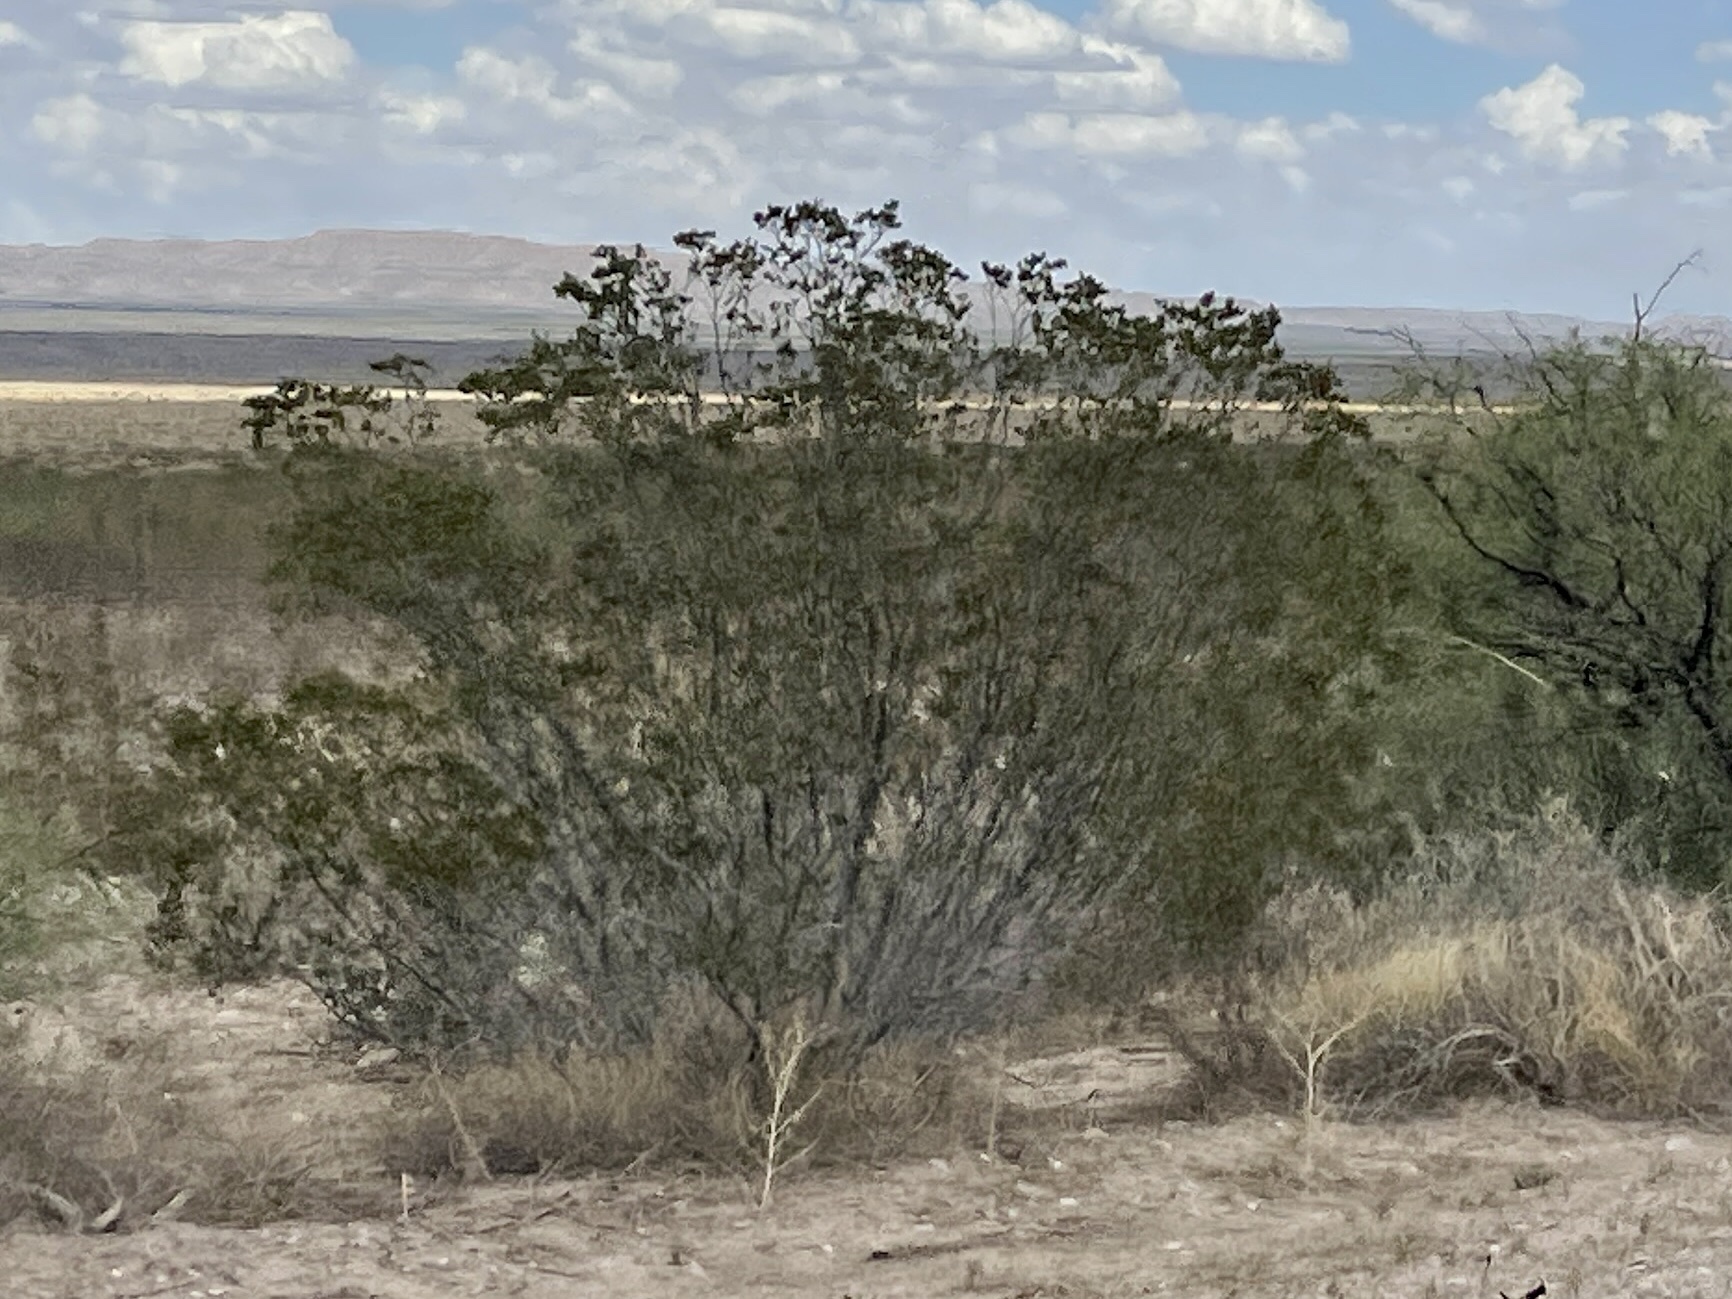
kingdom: Plantae
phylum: Tracheophyta
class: Magnoliopsida
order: Zygophyllales
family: Zygophyllaceae
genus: Larrea
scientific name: Larrea tridentata
